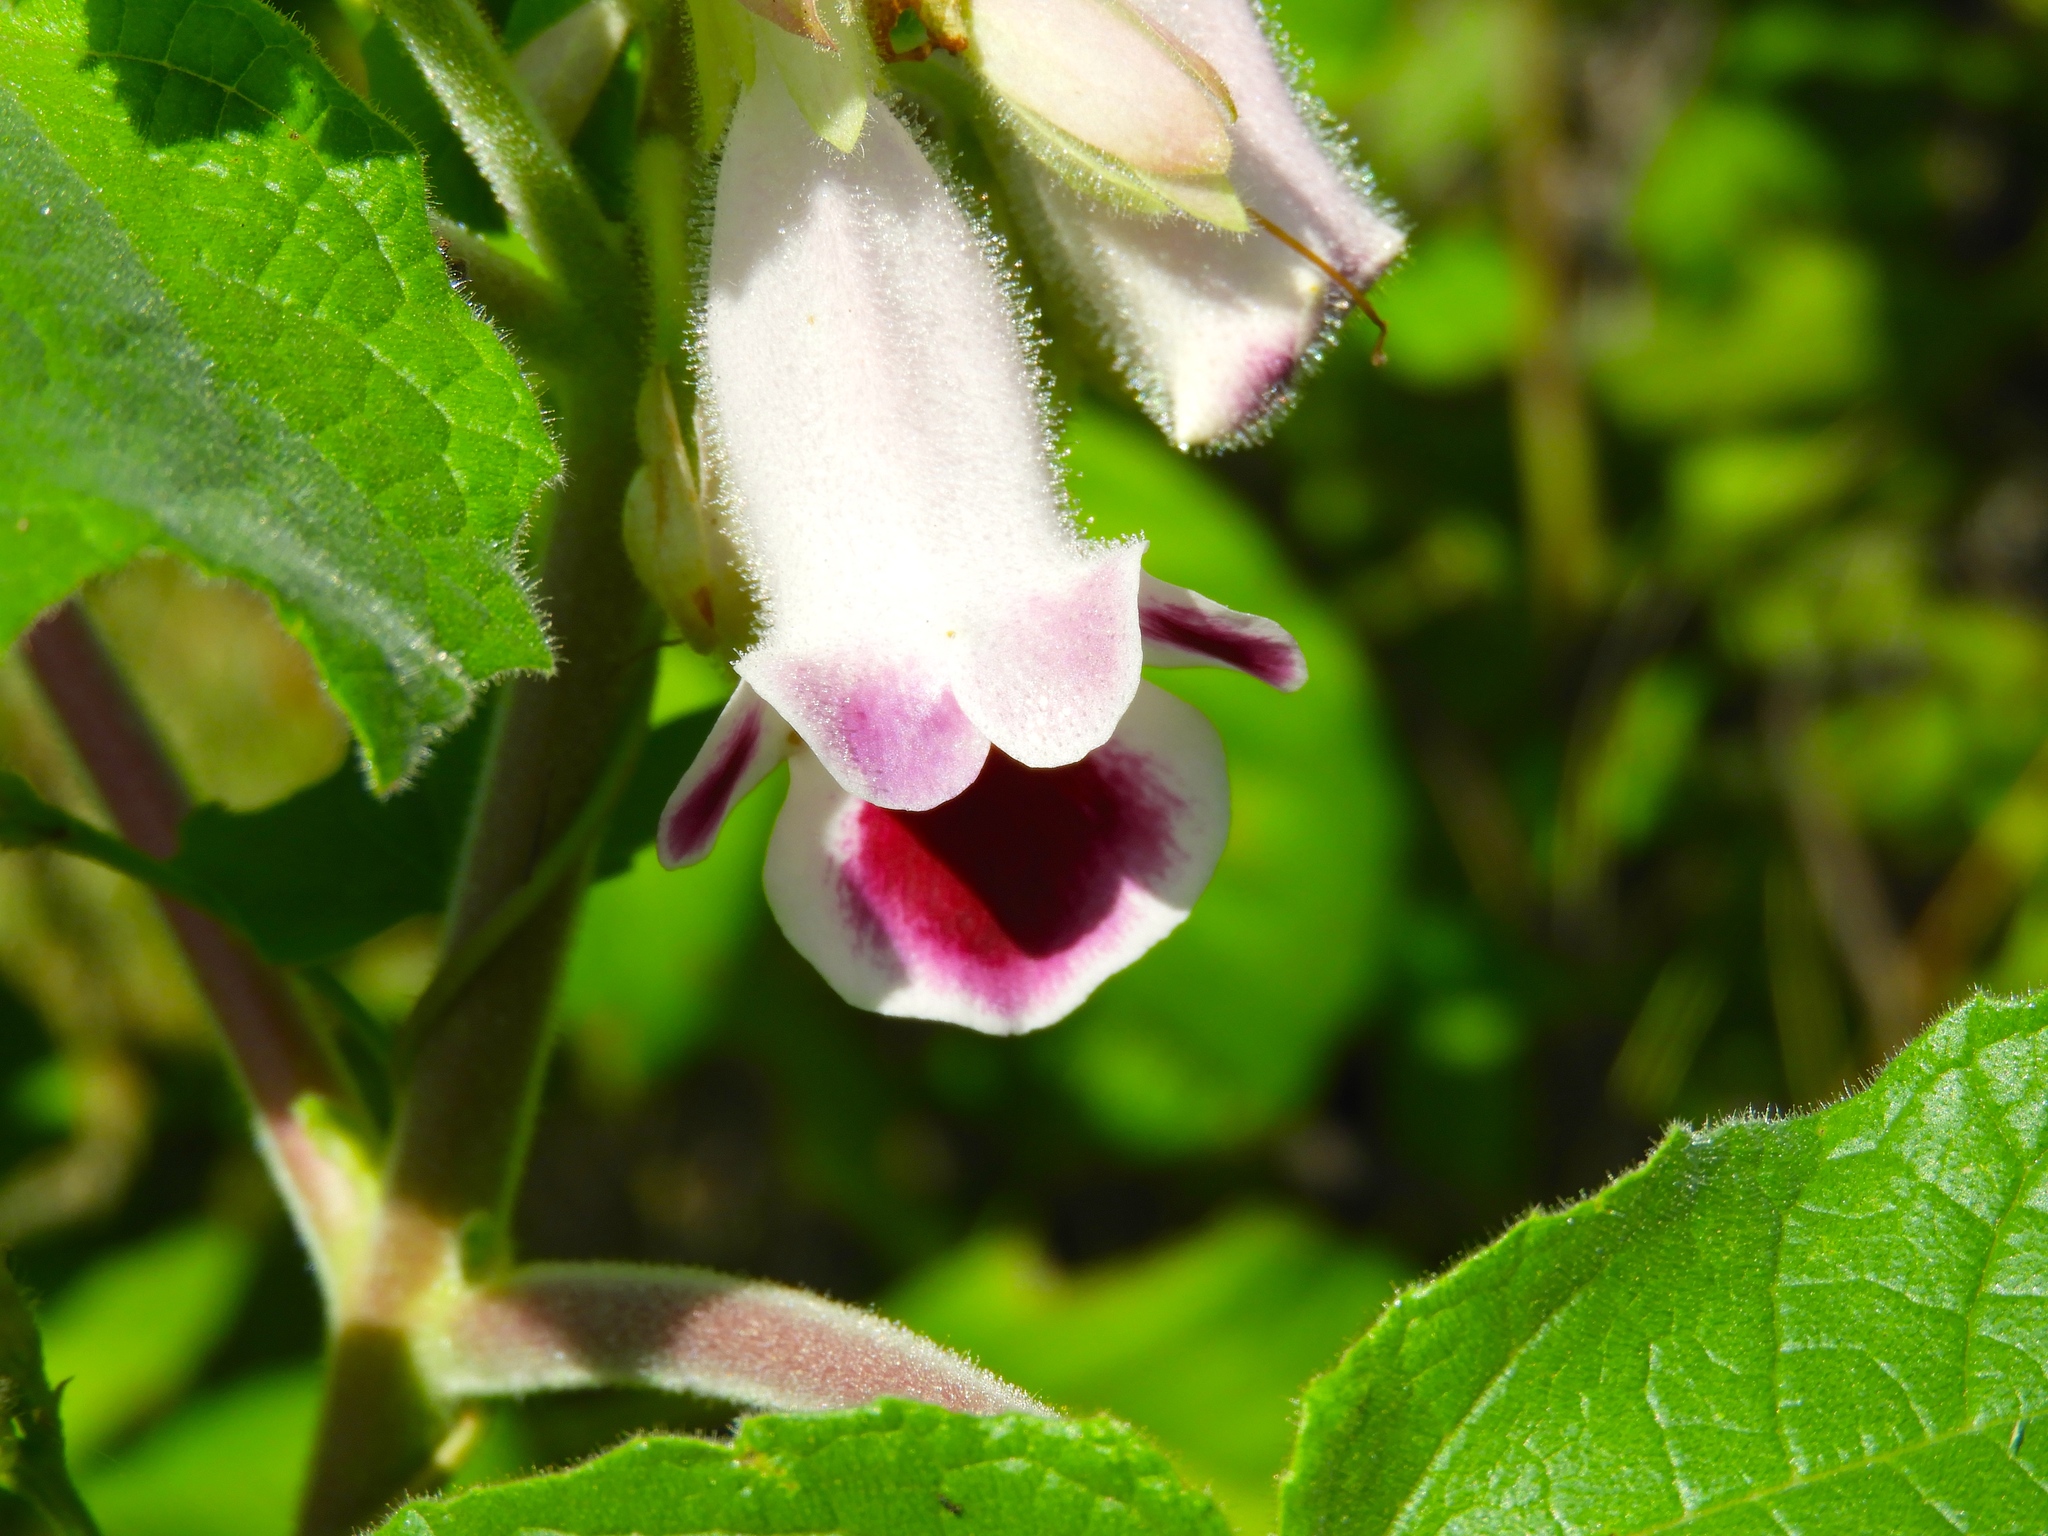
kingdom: Plantae
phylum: Tracheophyta
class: Magnoliopsida
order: Lamiales
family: Martyniaceae
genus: Martynia
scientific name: Martynia annua
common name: Tiger's-claw
